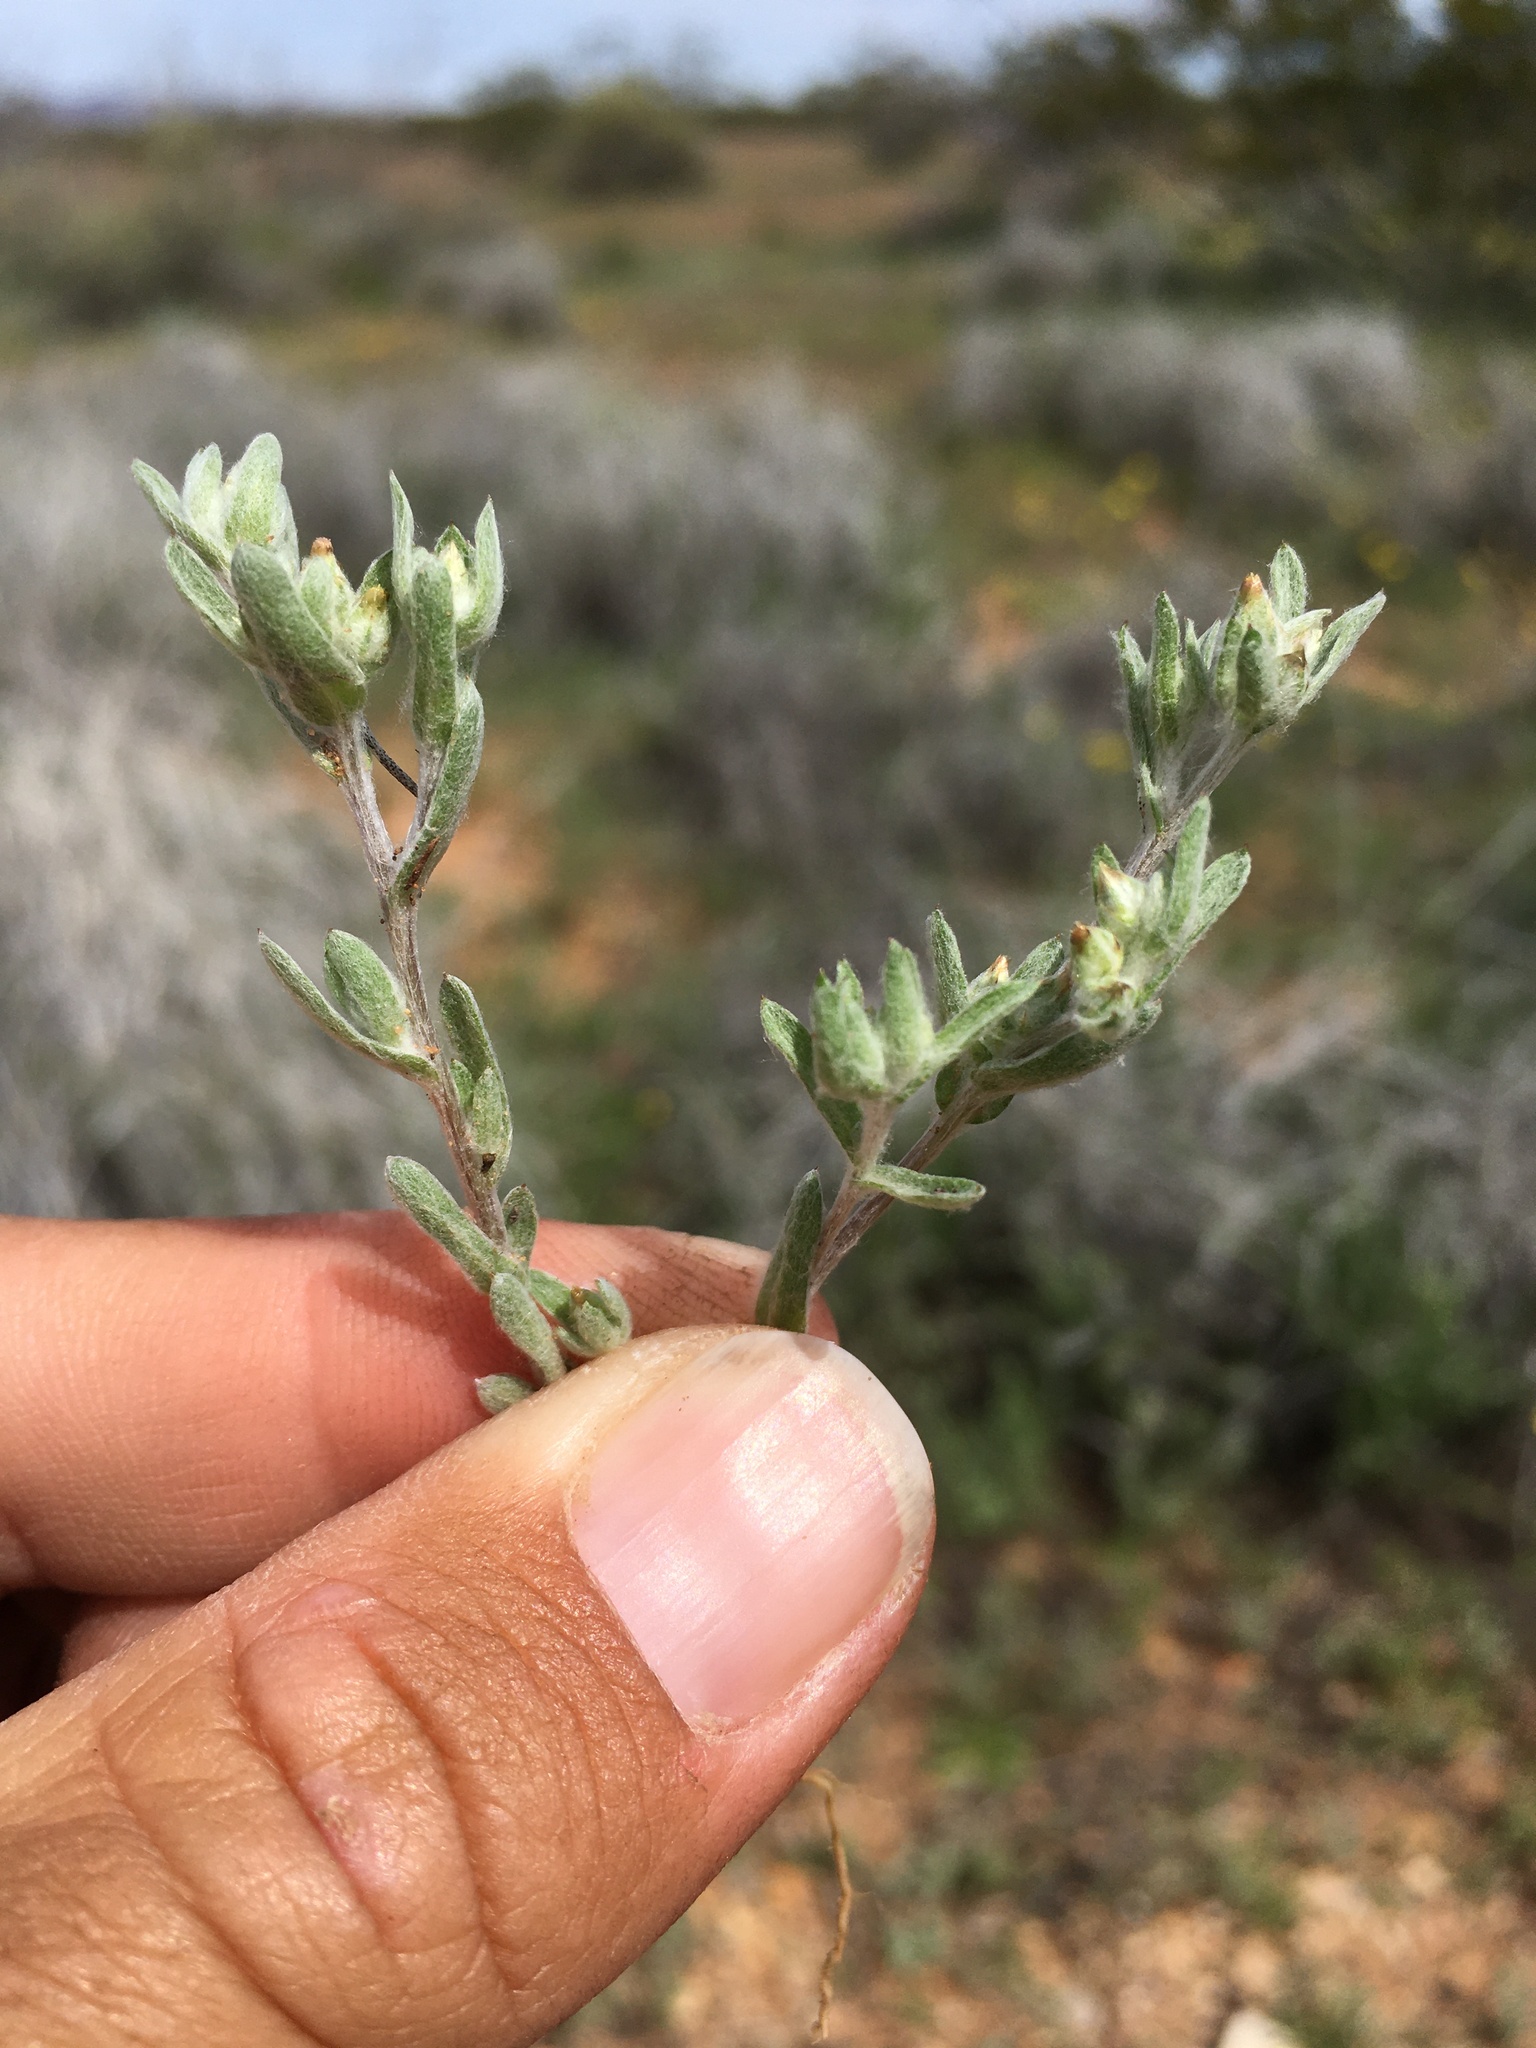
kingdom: Plantae
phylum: Tracheophyta
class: Magnoliopsida
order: Asterales
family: Asteraceae
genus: Logfia
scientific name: Logfia californica
